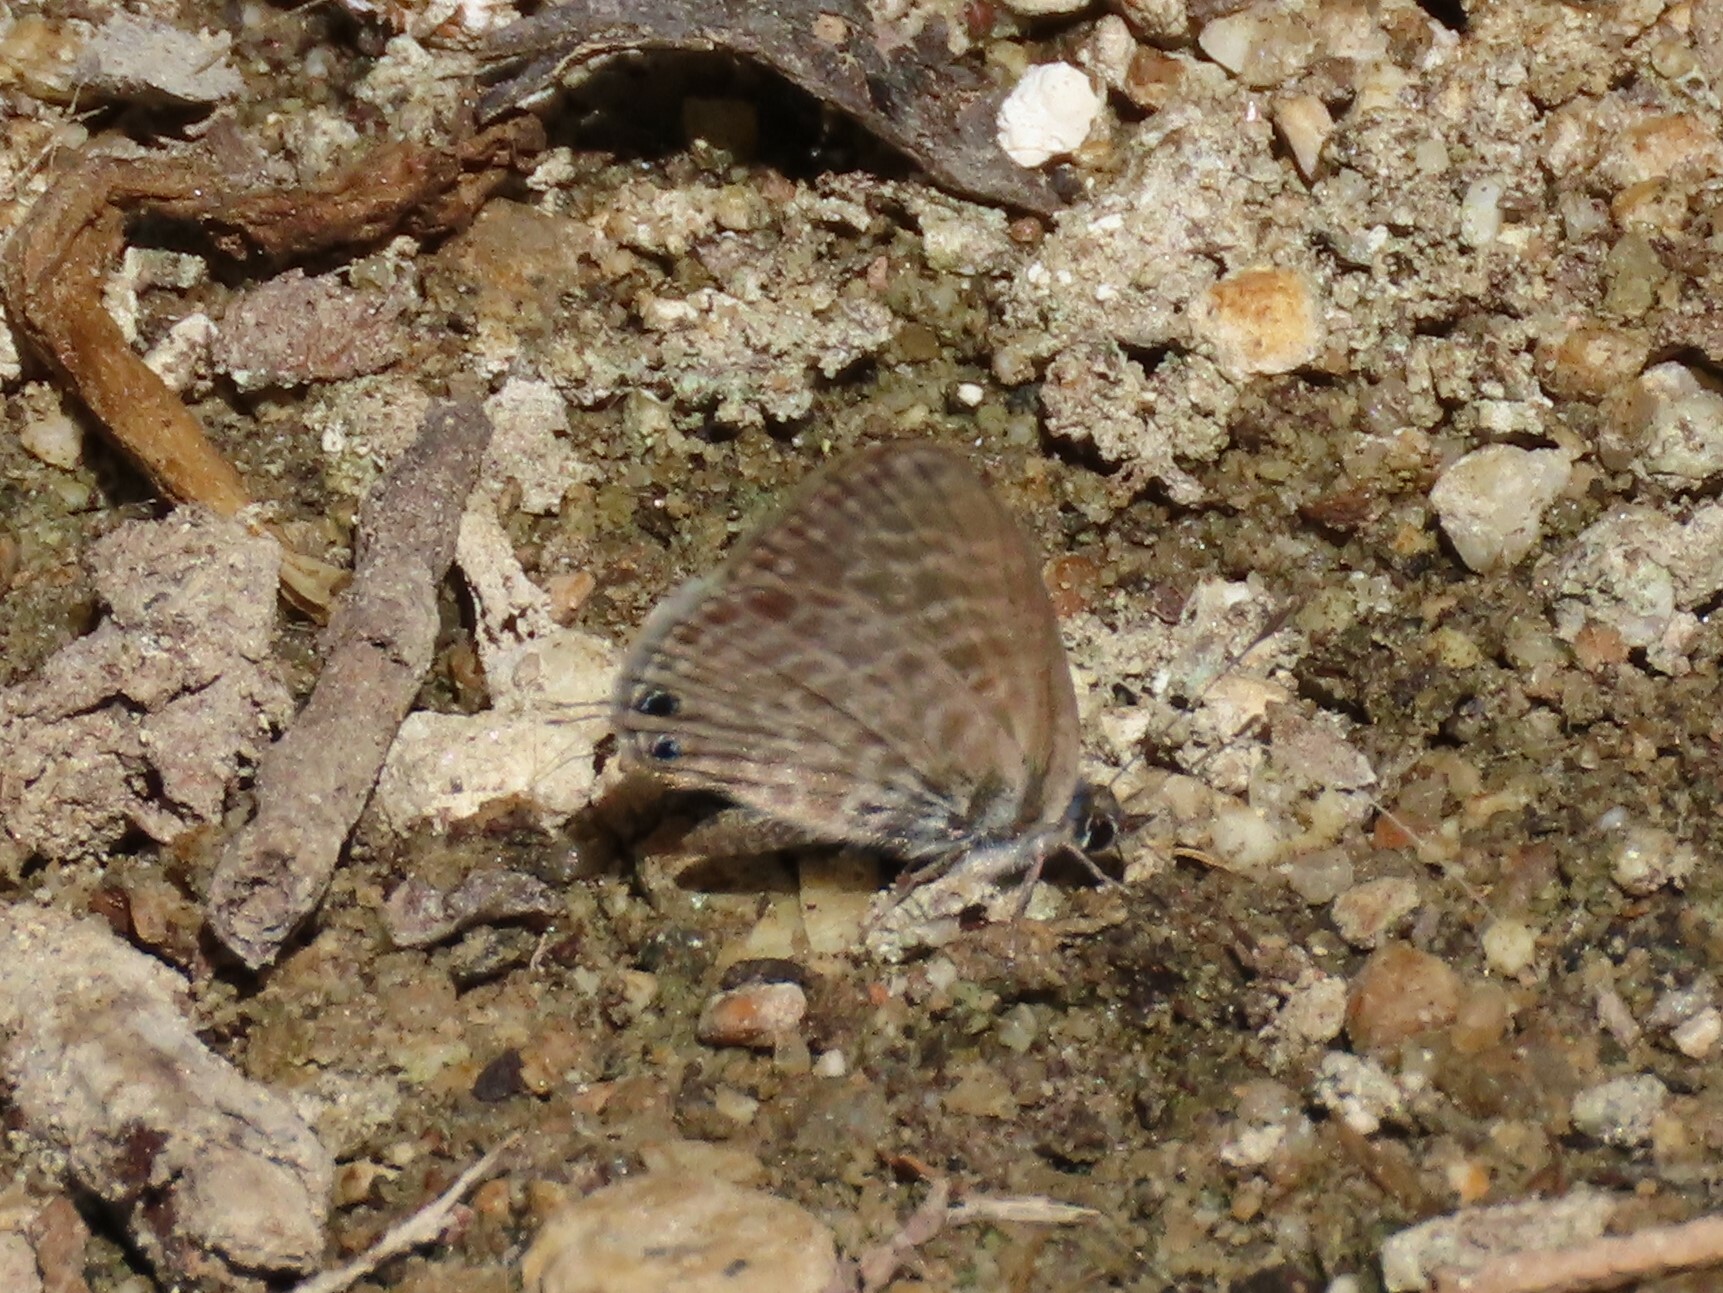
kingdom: Animalia
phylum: Arthropoda
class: Insecta
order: Lepidoptera
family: Lycaenidae
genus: Leptotes
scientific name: Leptotes pirithous
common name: Lang's short-tailed blue
